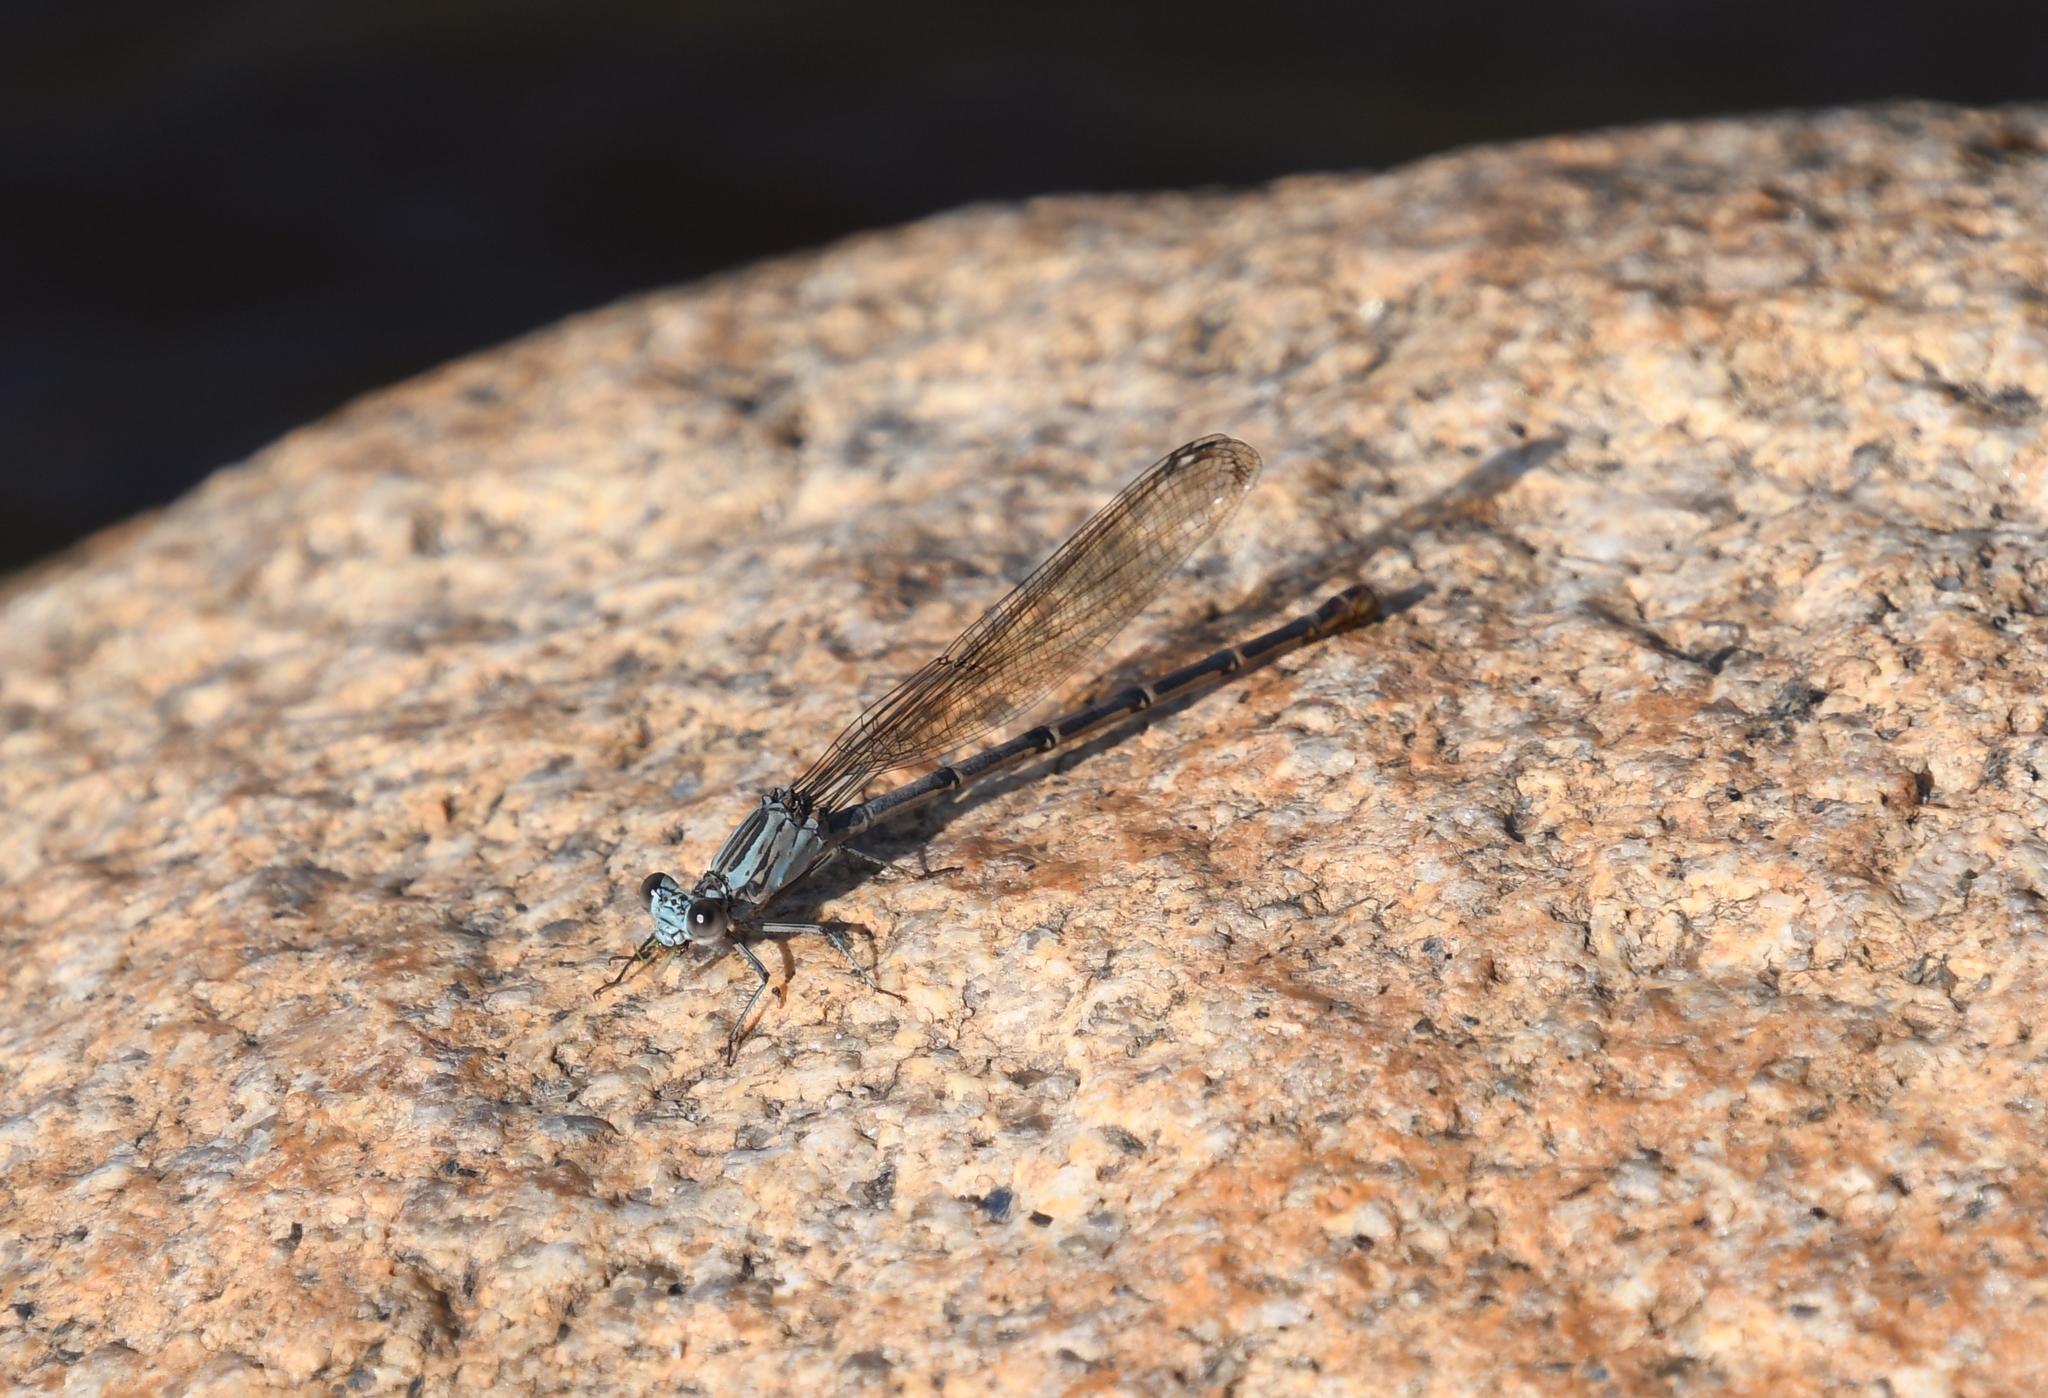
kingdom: Animalia
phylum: Arthropoda
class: Insecta
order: Odonata
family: Coenagrionidae
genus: Argia
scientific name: Argia lugens
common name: Sooty dancer
